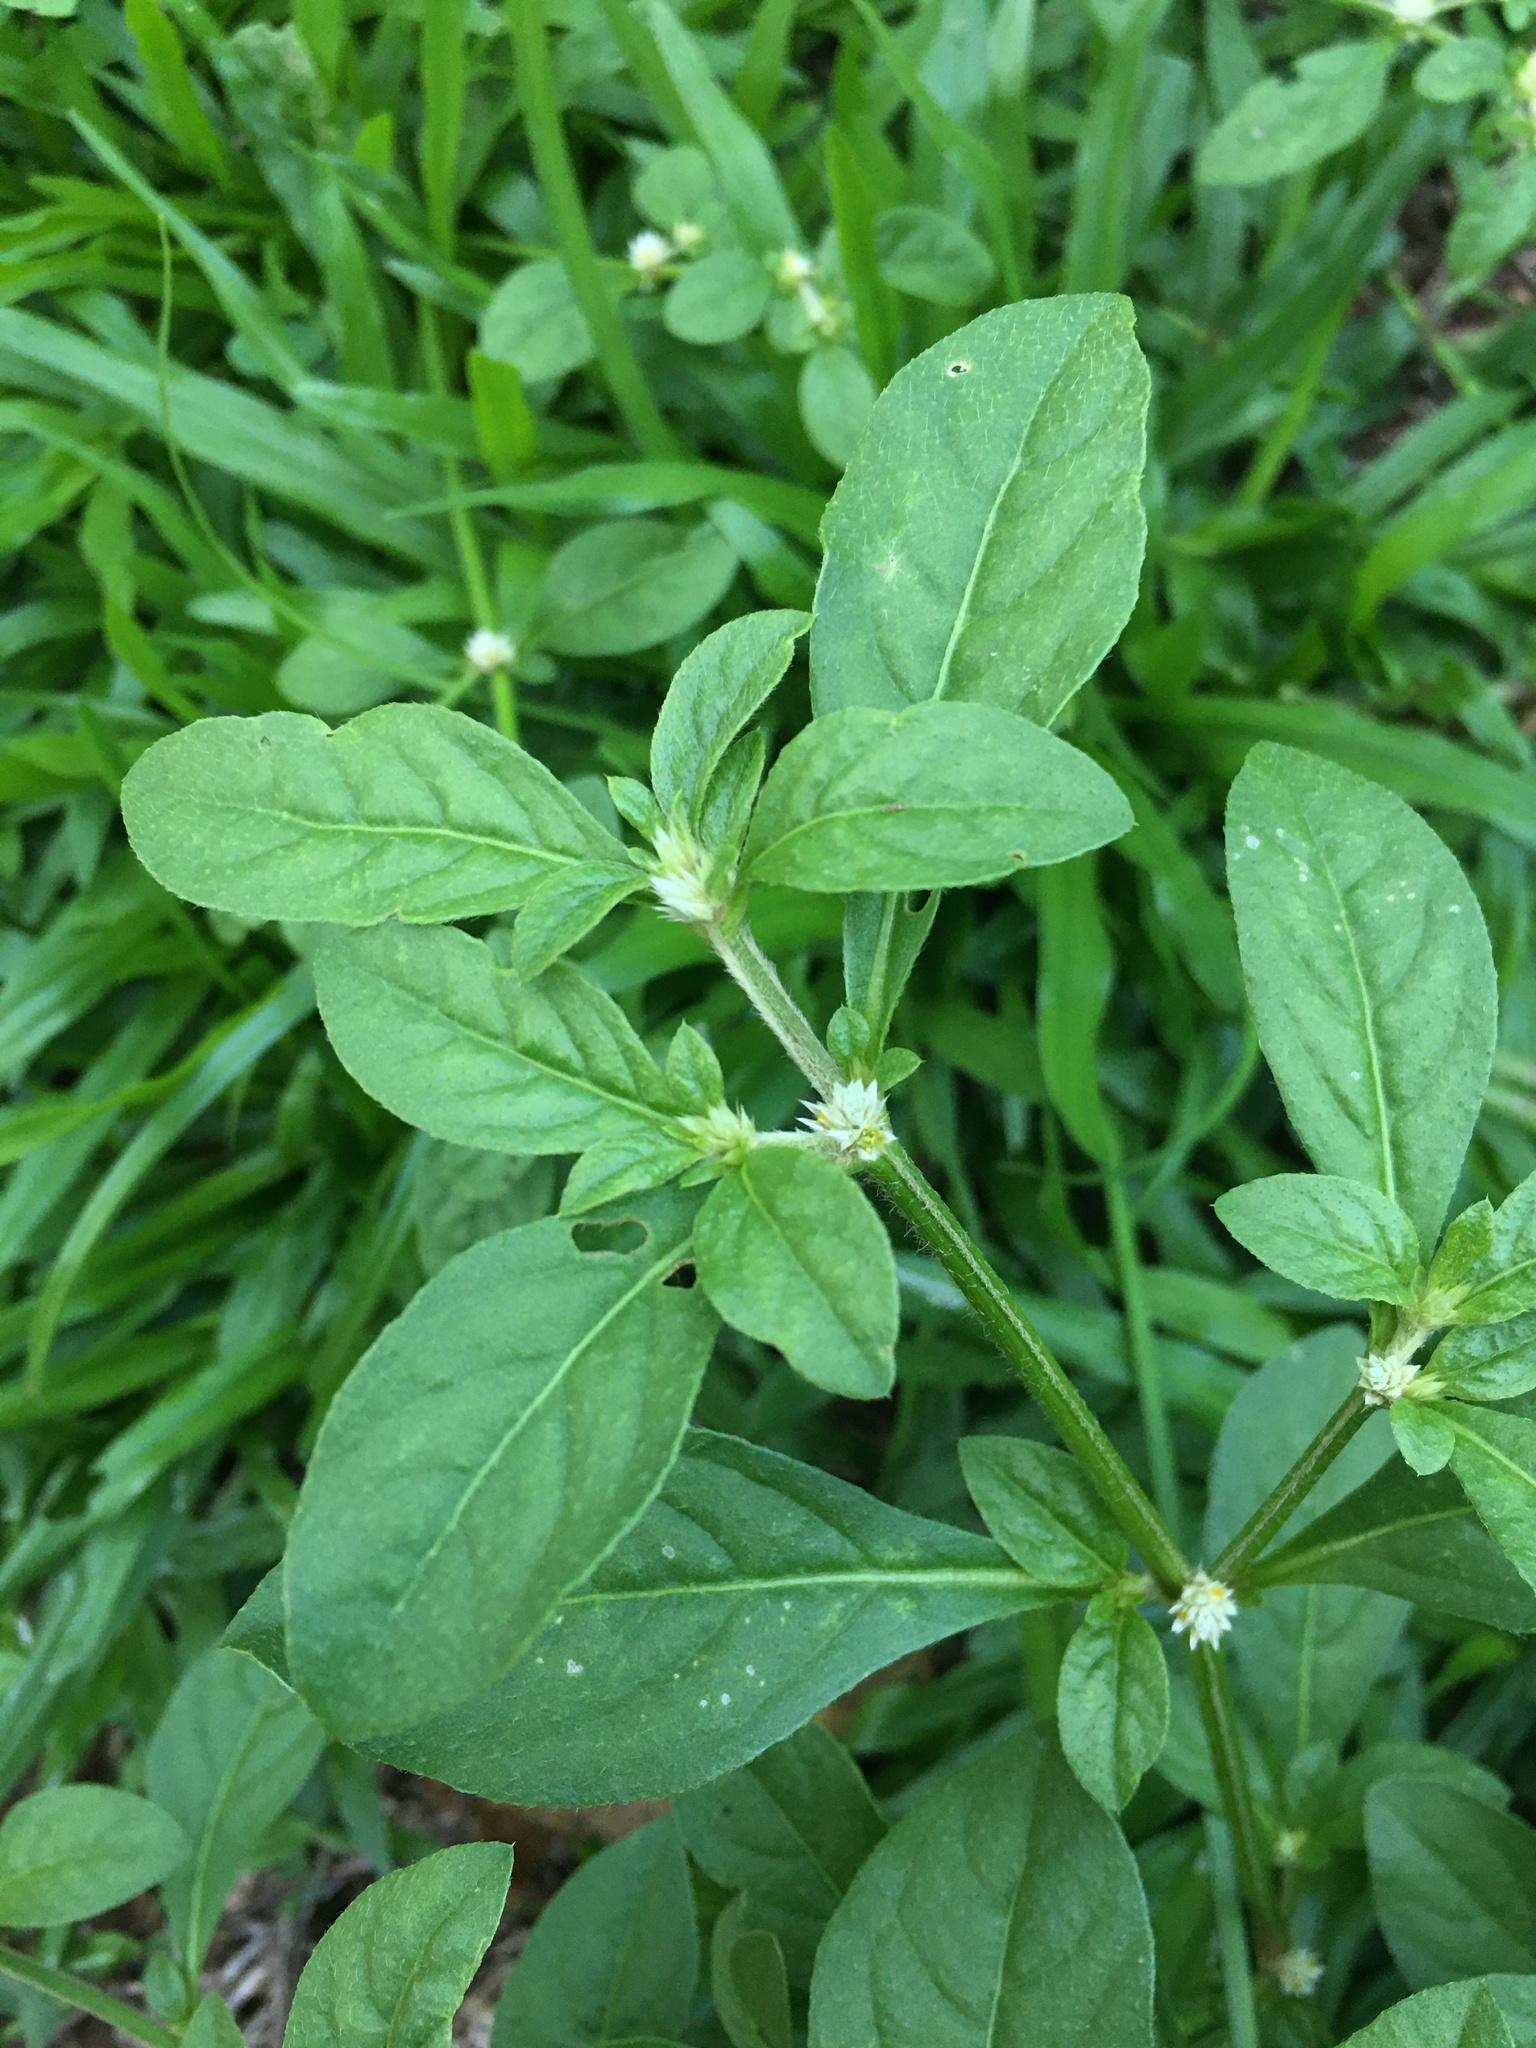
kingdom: Plantae
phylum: Tracheophyta
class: Magnoliopsida
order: Caryophyllales
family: Amaranthaceae
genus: Alternanthera
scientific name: Alternanthera ficoidea
